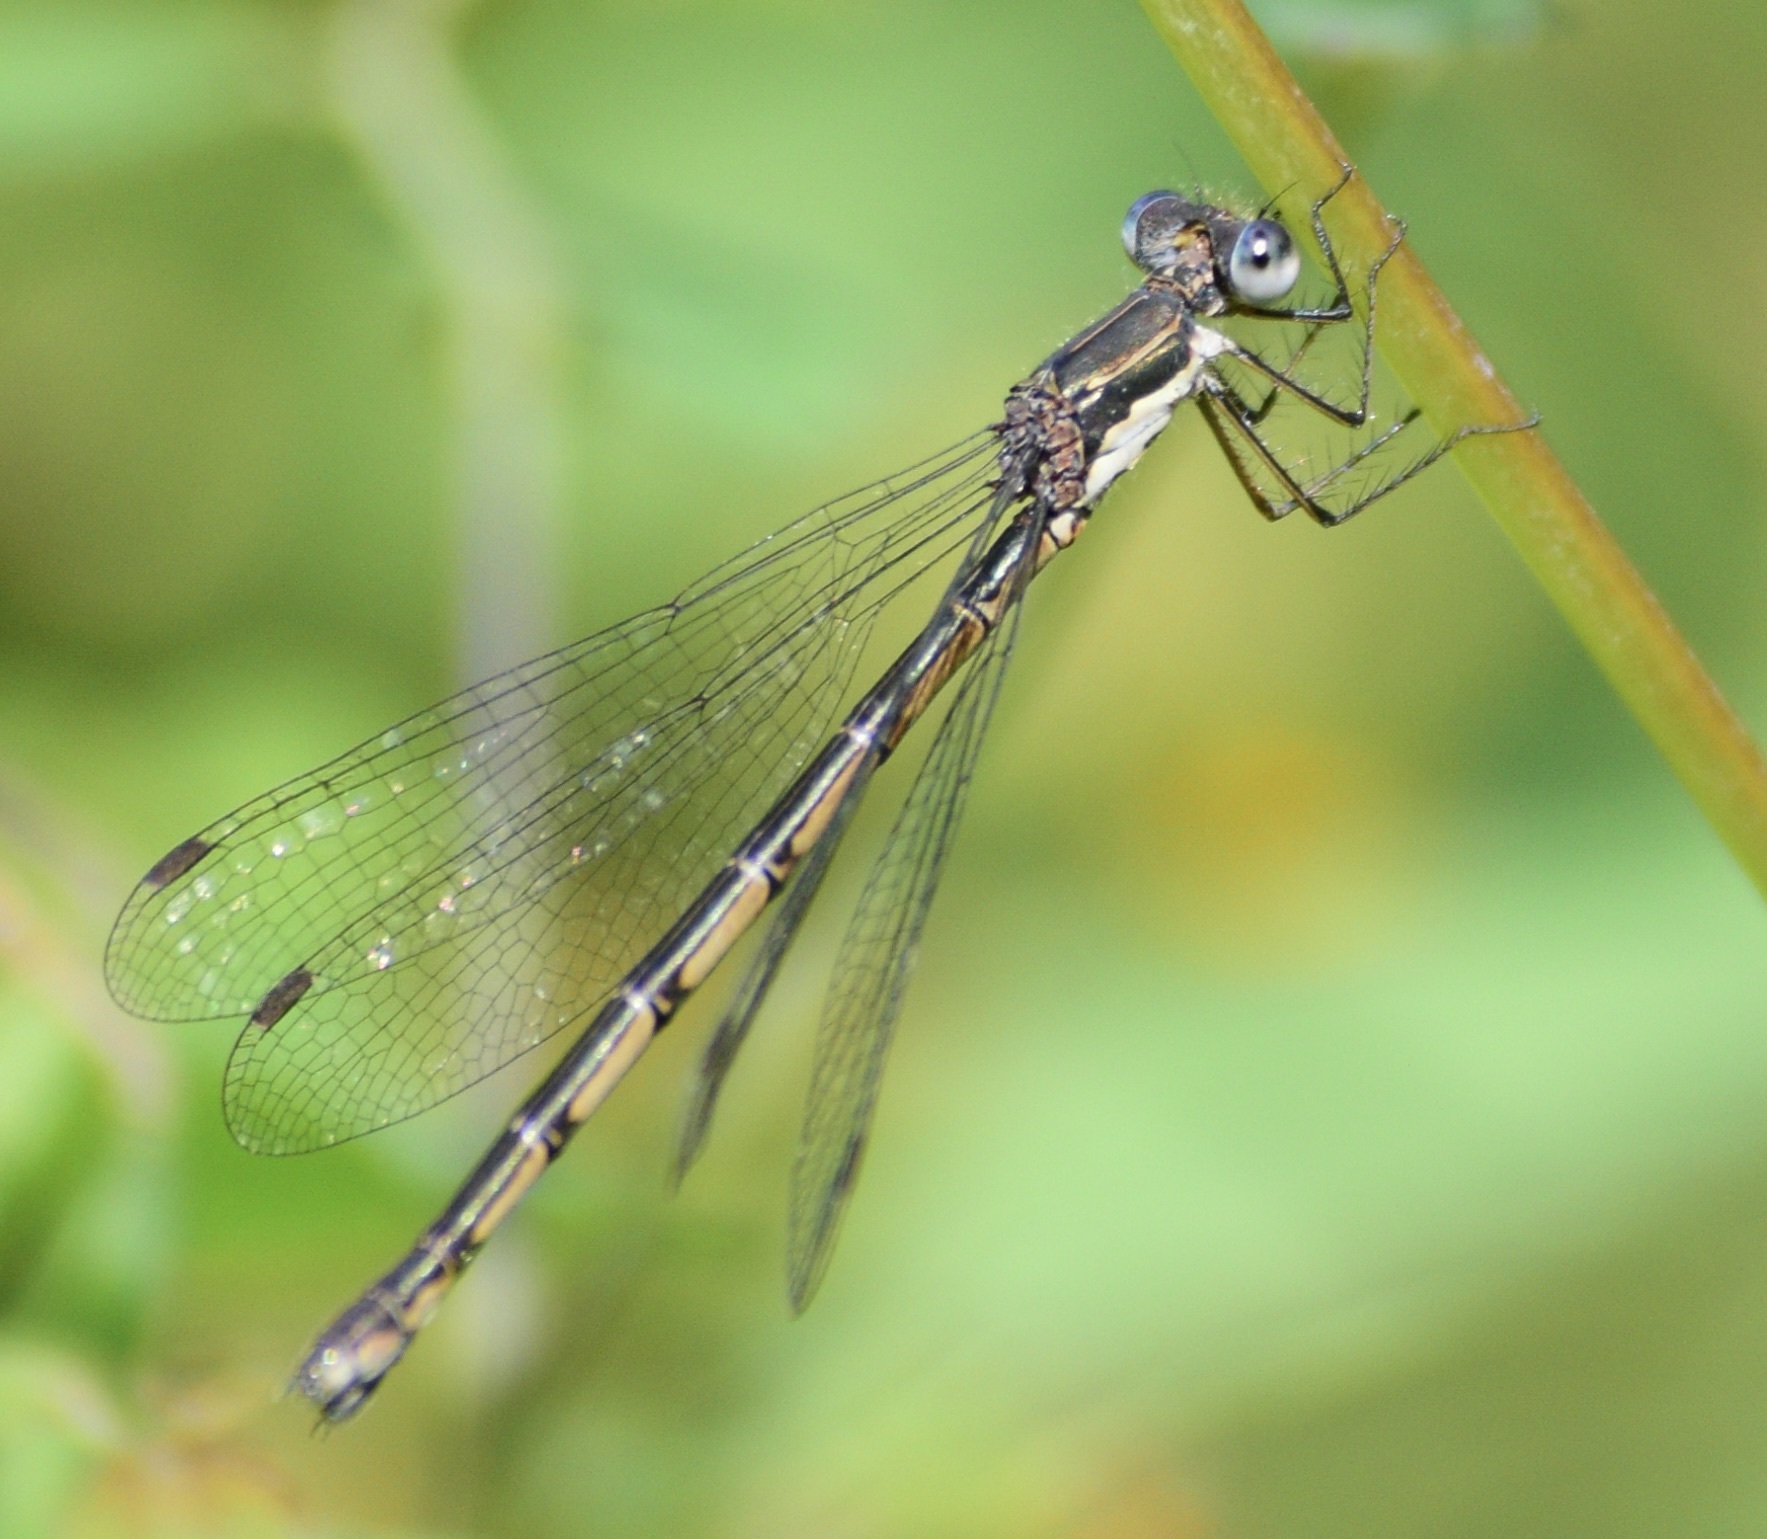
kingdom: Animalia
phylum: Arthropoda
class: Insecta
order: Odonata
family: Lestidae
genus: Lestes
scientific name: Lestes congener
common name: Spotted spreadwing
